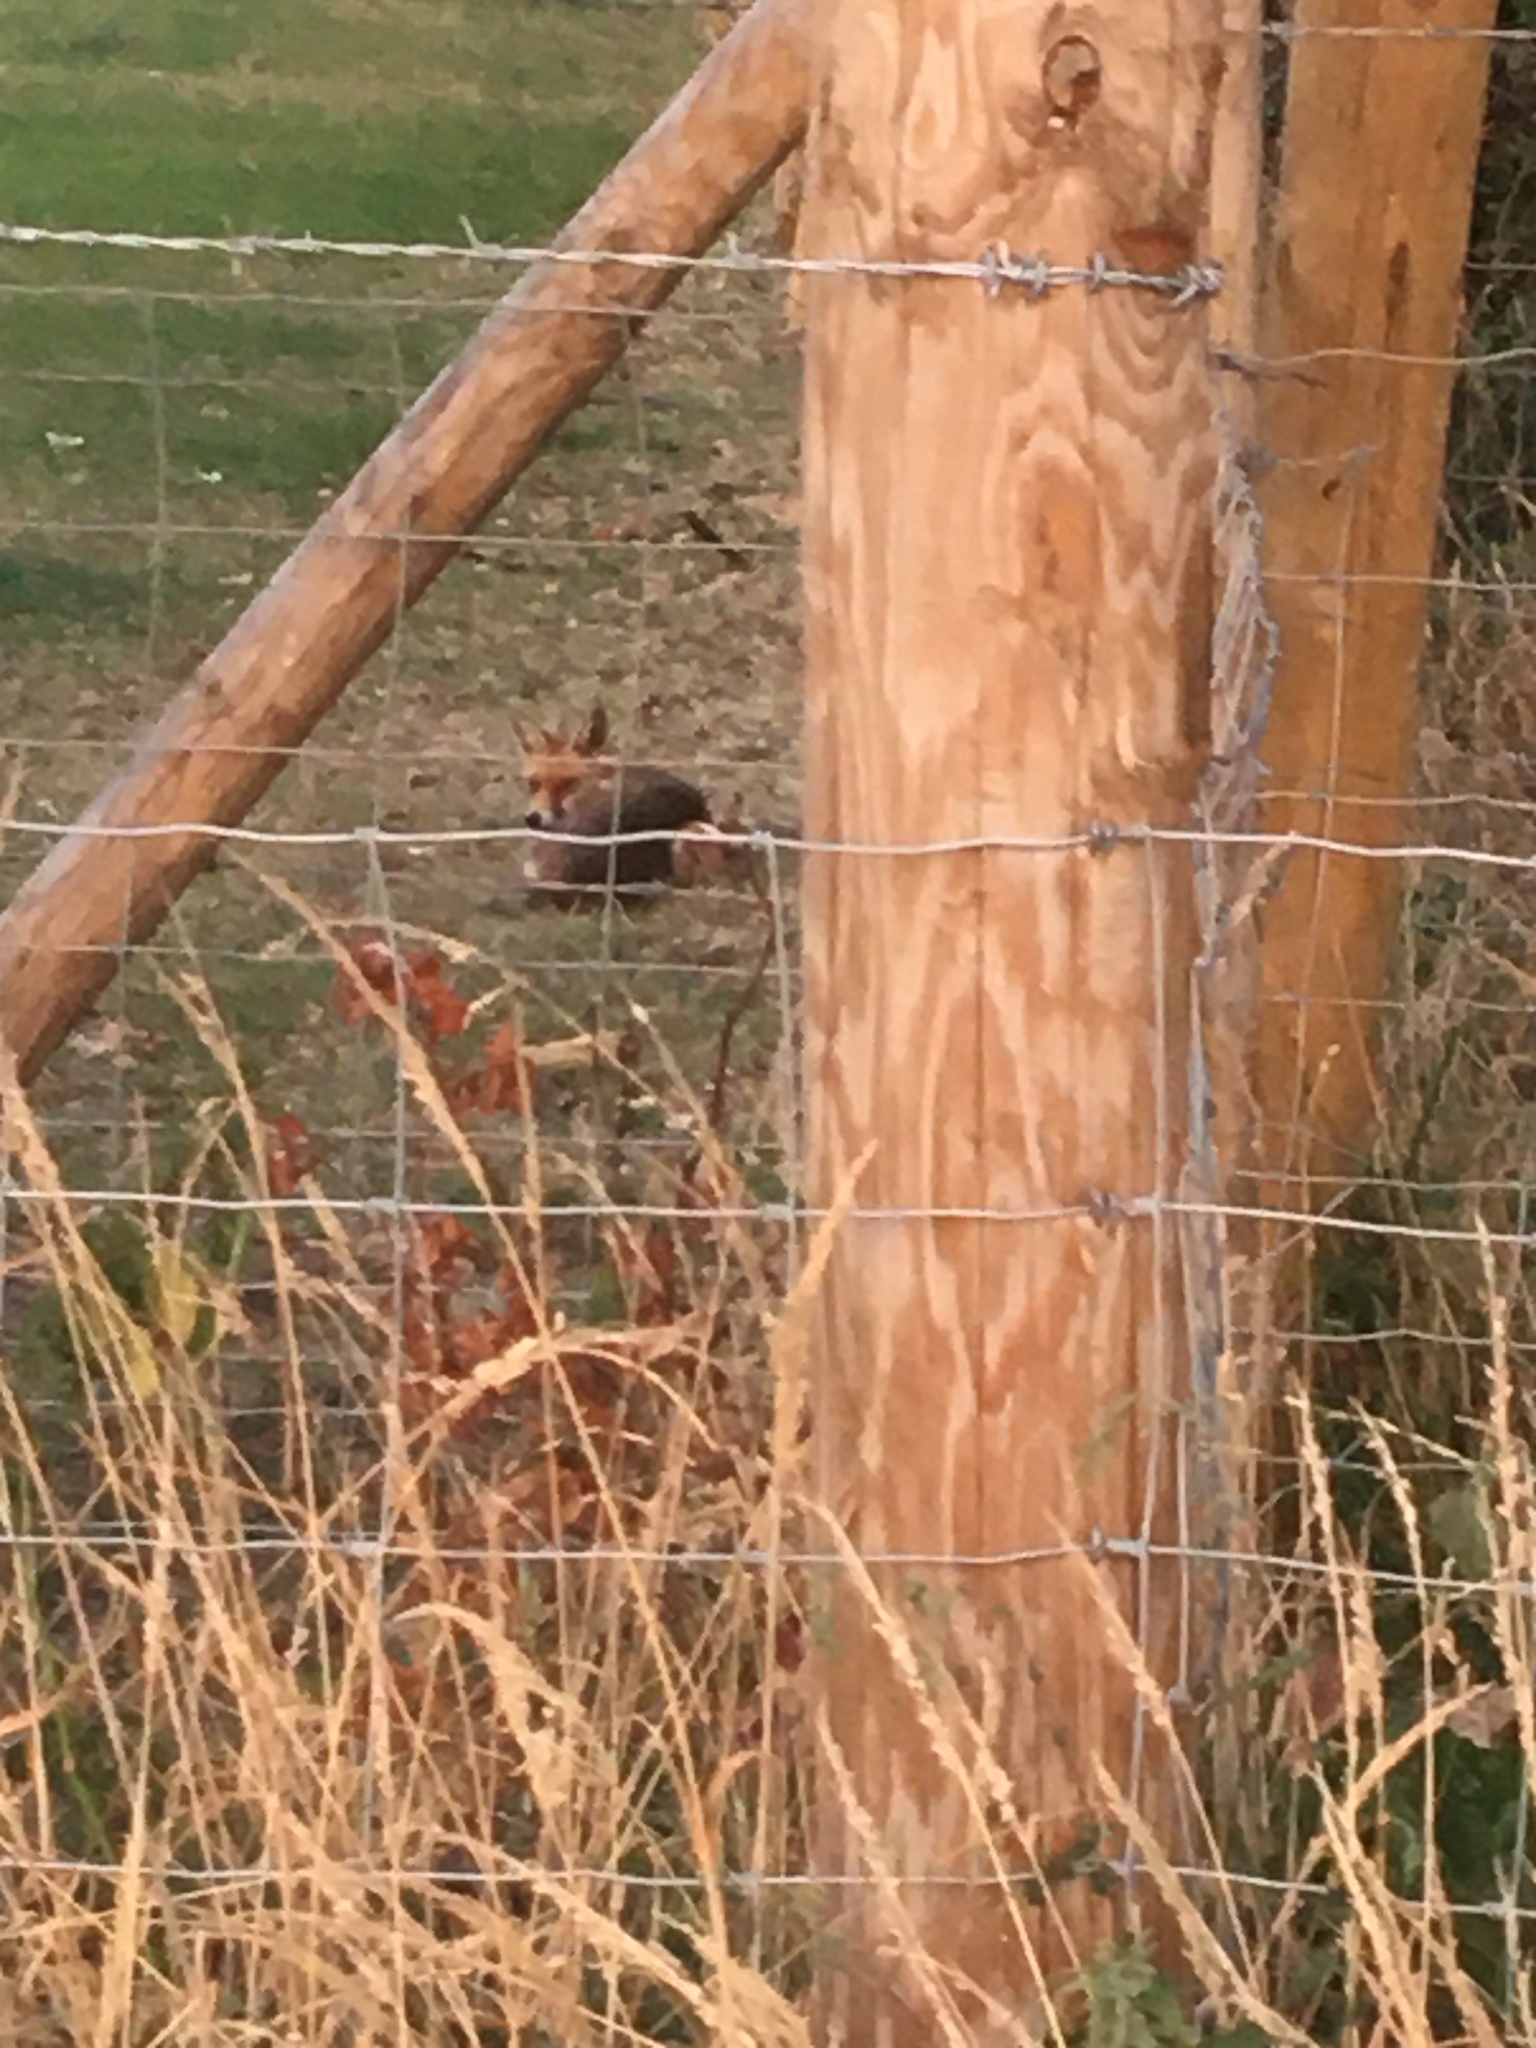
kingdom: Animalia
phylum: Chordata
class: Mammalia
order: Carnivora
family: Canidae
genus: Vulpes
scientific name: Vulpes vulpes
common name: Red fox
